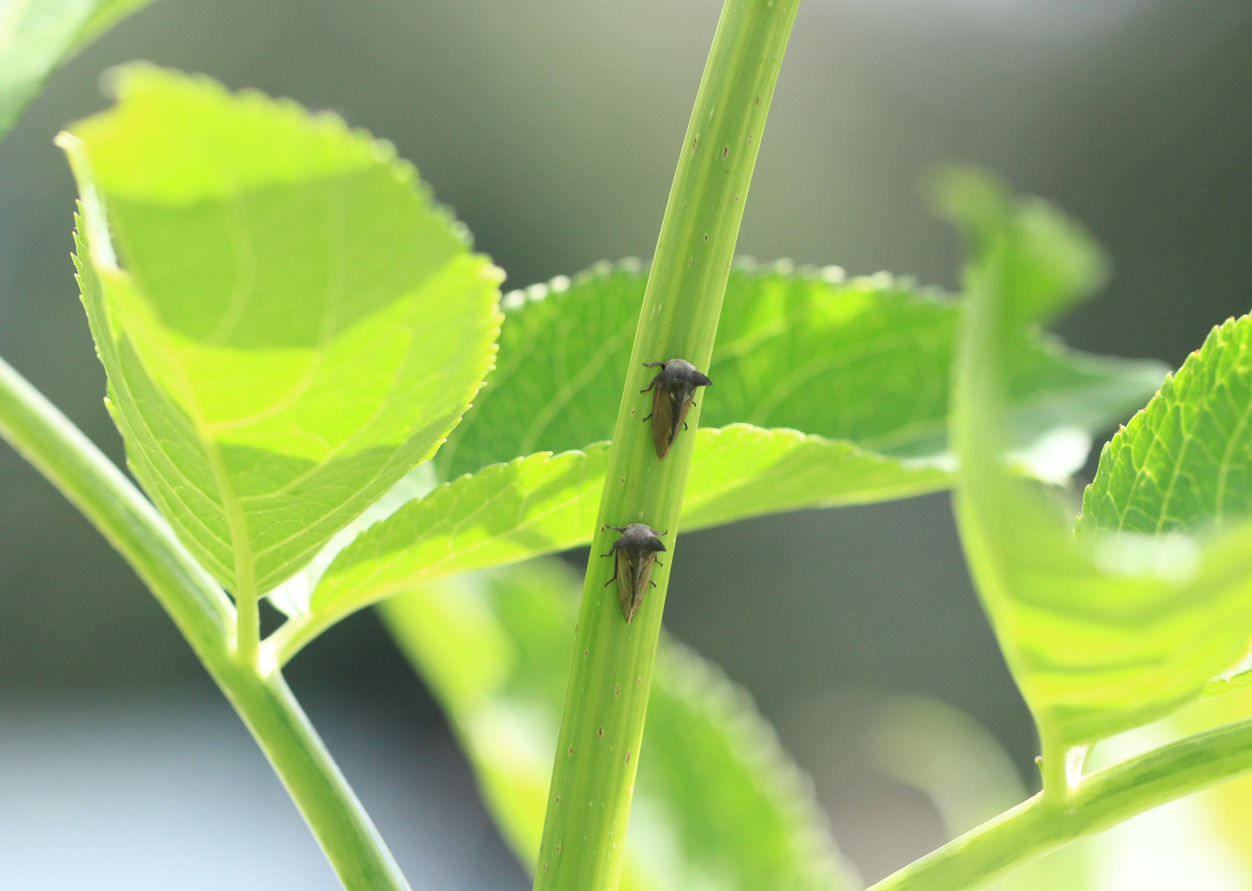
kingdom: Animalia
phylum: Arthropoda
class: Insecta
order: Hemiptera
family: Membracidae
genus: Centrotus
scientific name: Centrotus cornuta
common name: Treehopper
